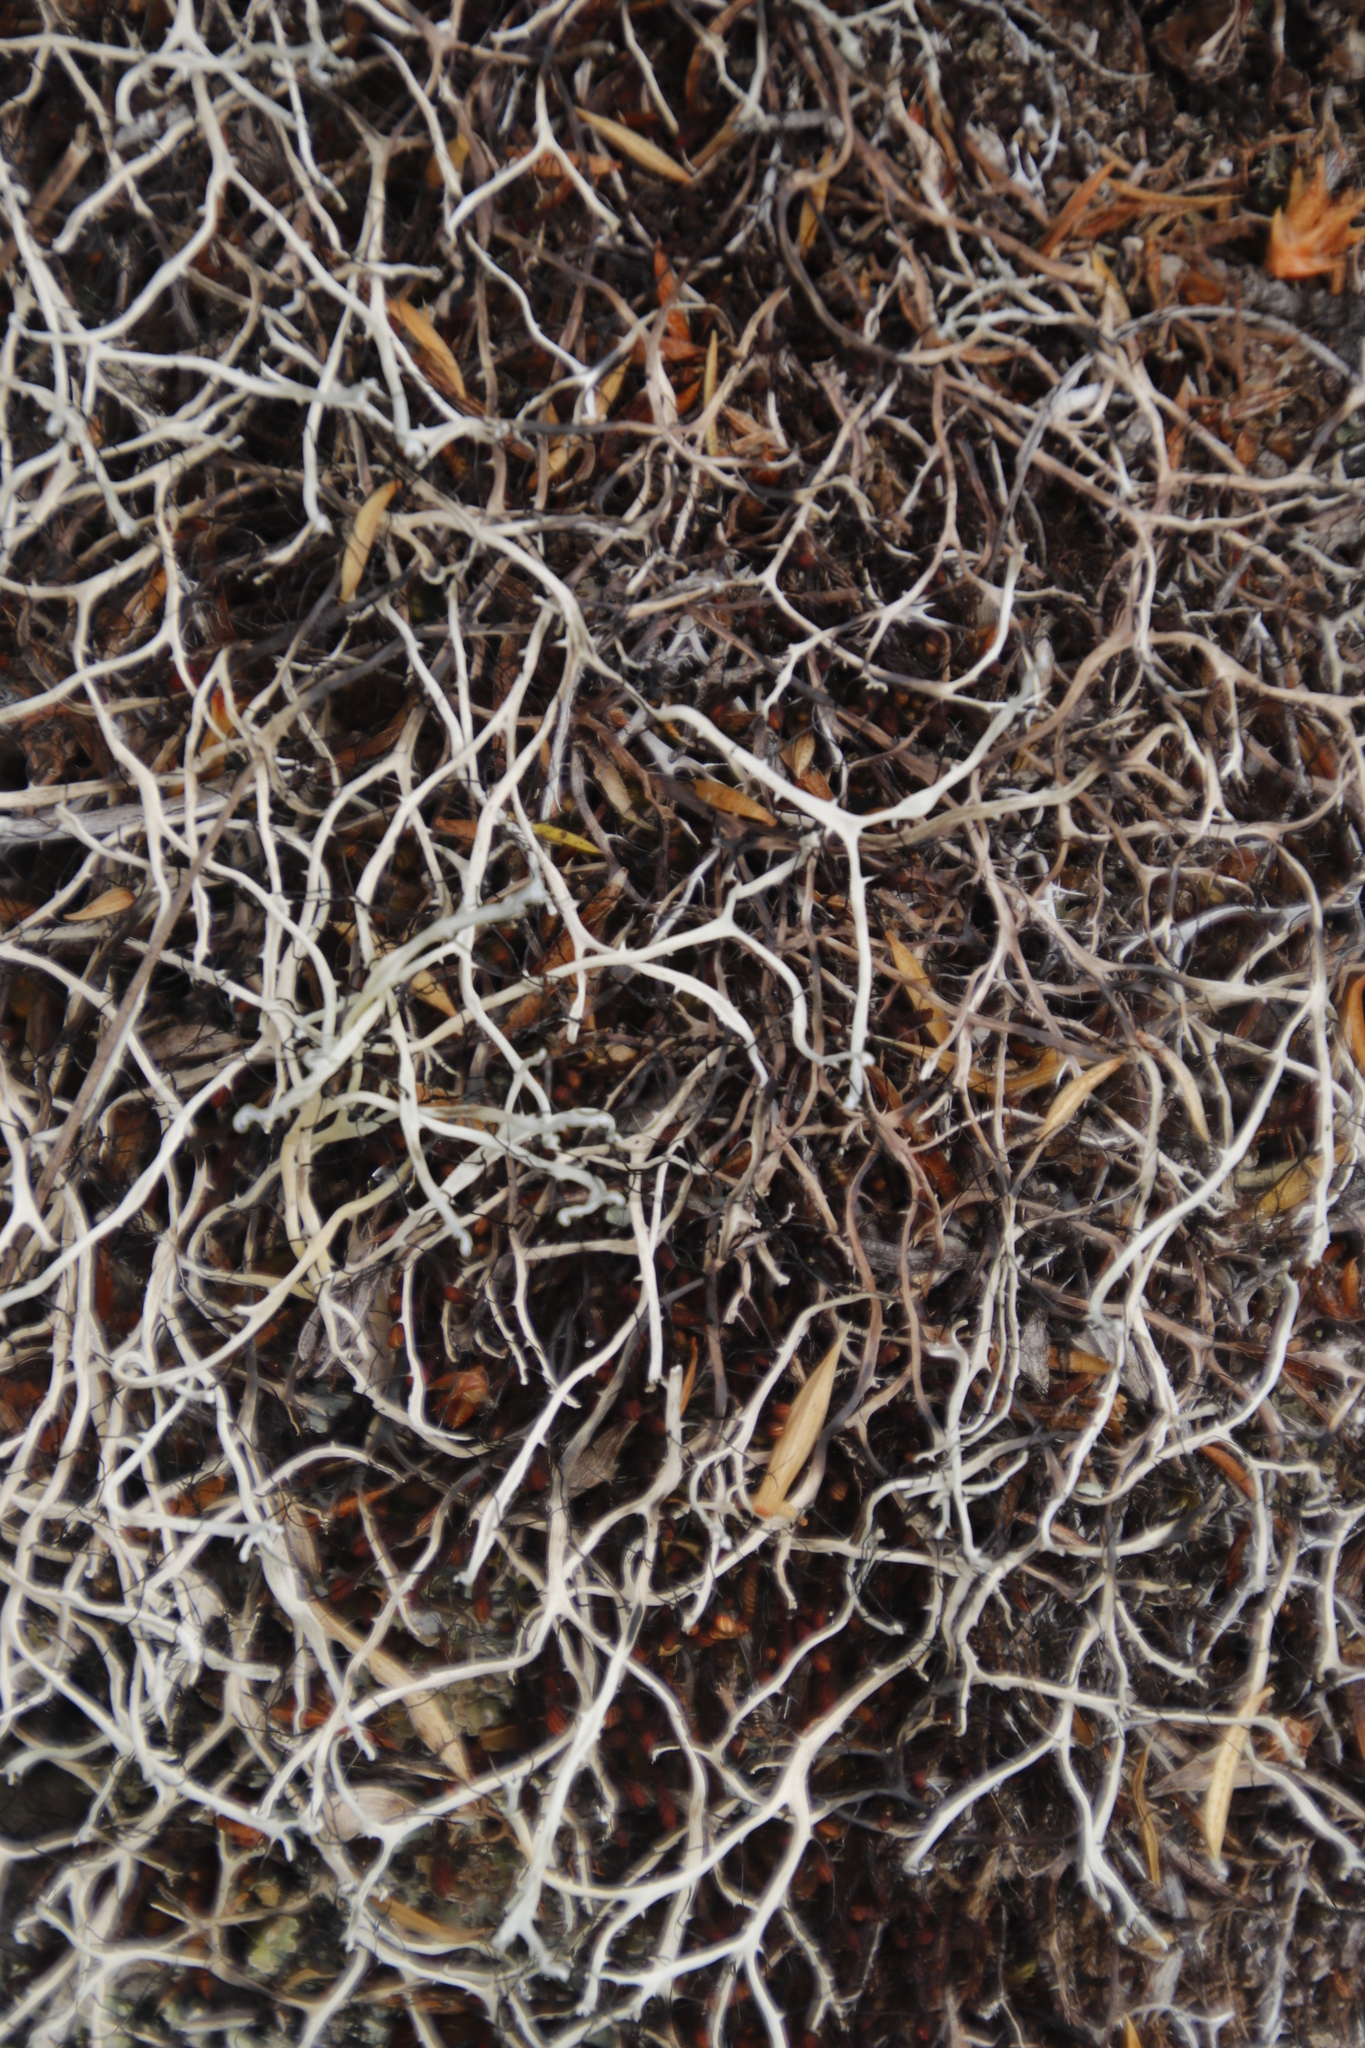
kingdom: Fungi
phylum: Ascomycota
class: Lecanoromycetes
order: Caliciales
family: Physciaceae
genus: Leucodermia
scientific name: Leucodermia leucomelos
